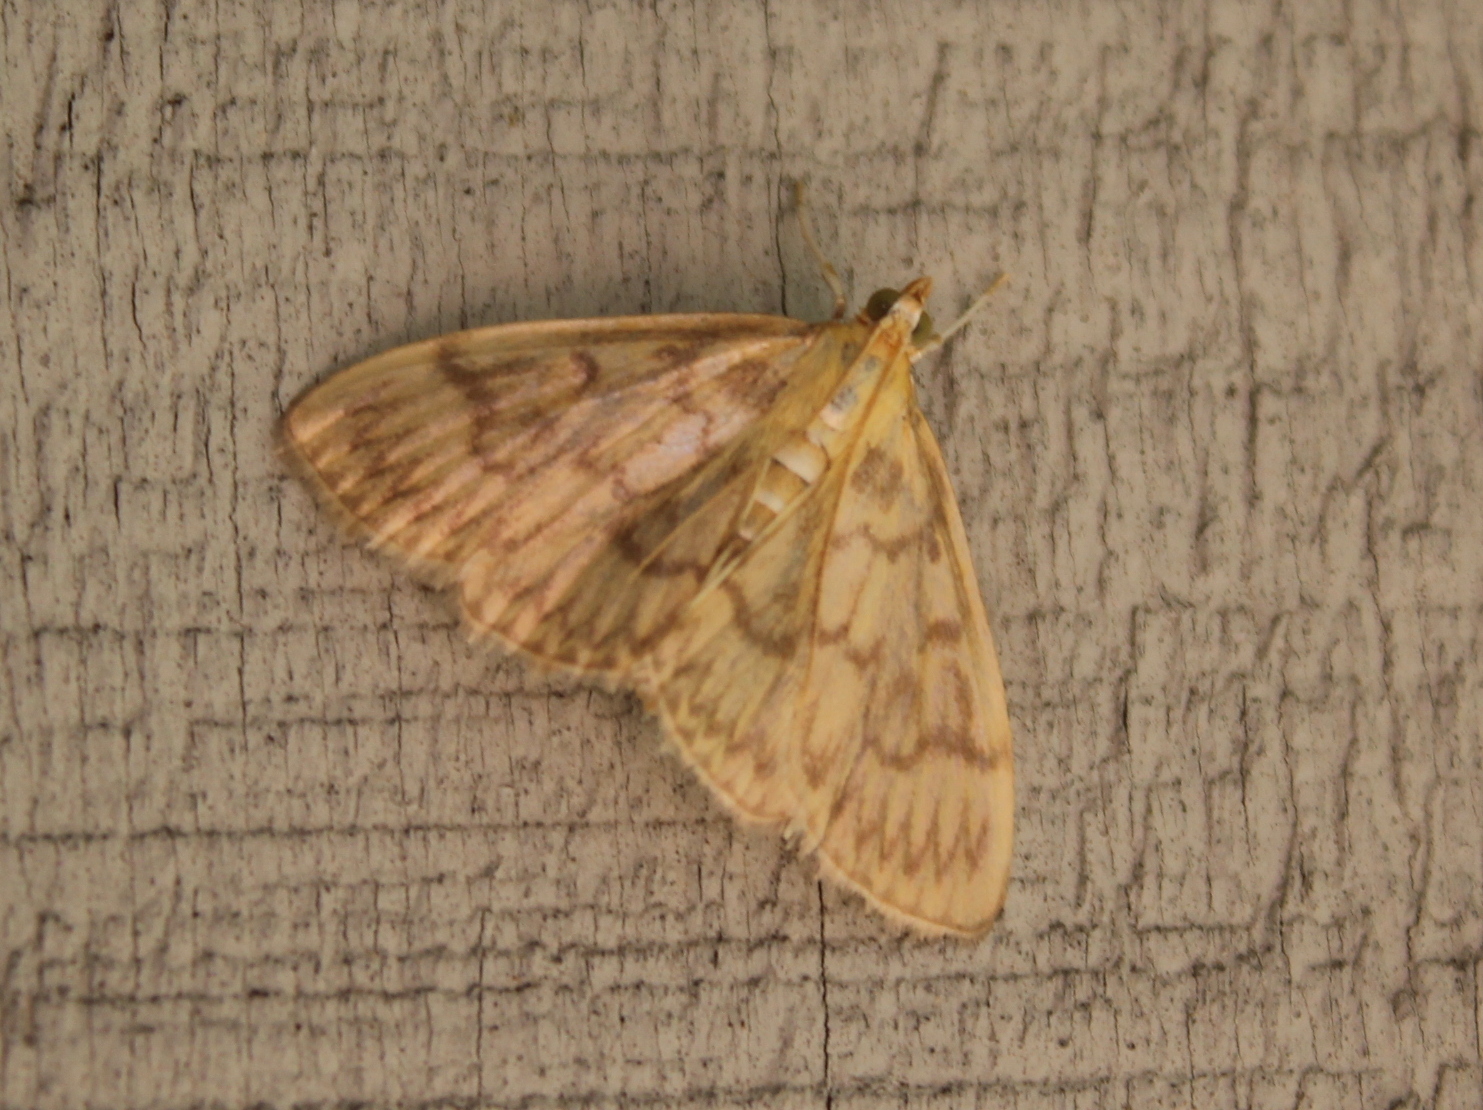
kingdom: Animalia
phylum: Arthropoda
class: Insecta
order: Lepidoptera
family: Crambidae
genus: Crocidophora
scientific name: Crocidophora serratissimalis
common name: Saw-toothed crocidophora moth
